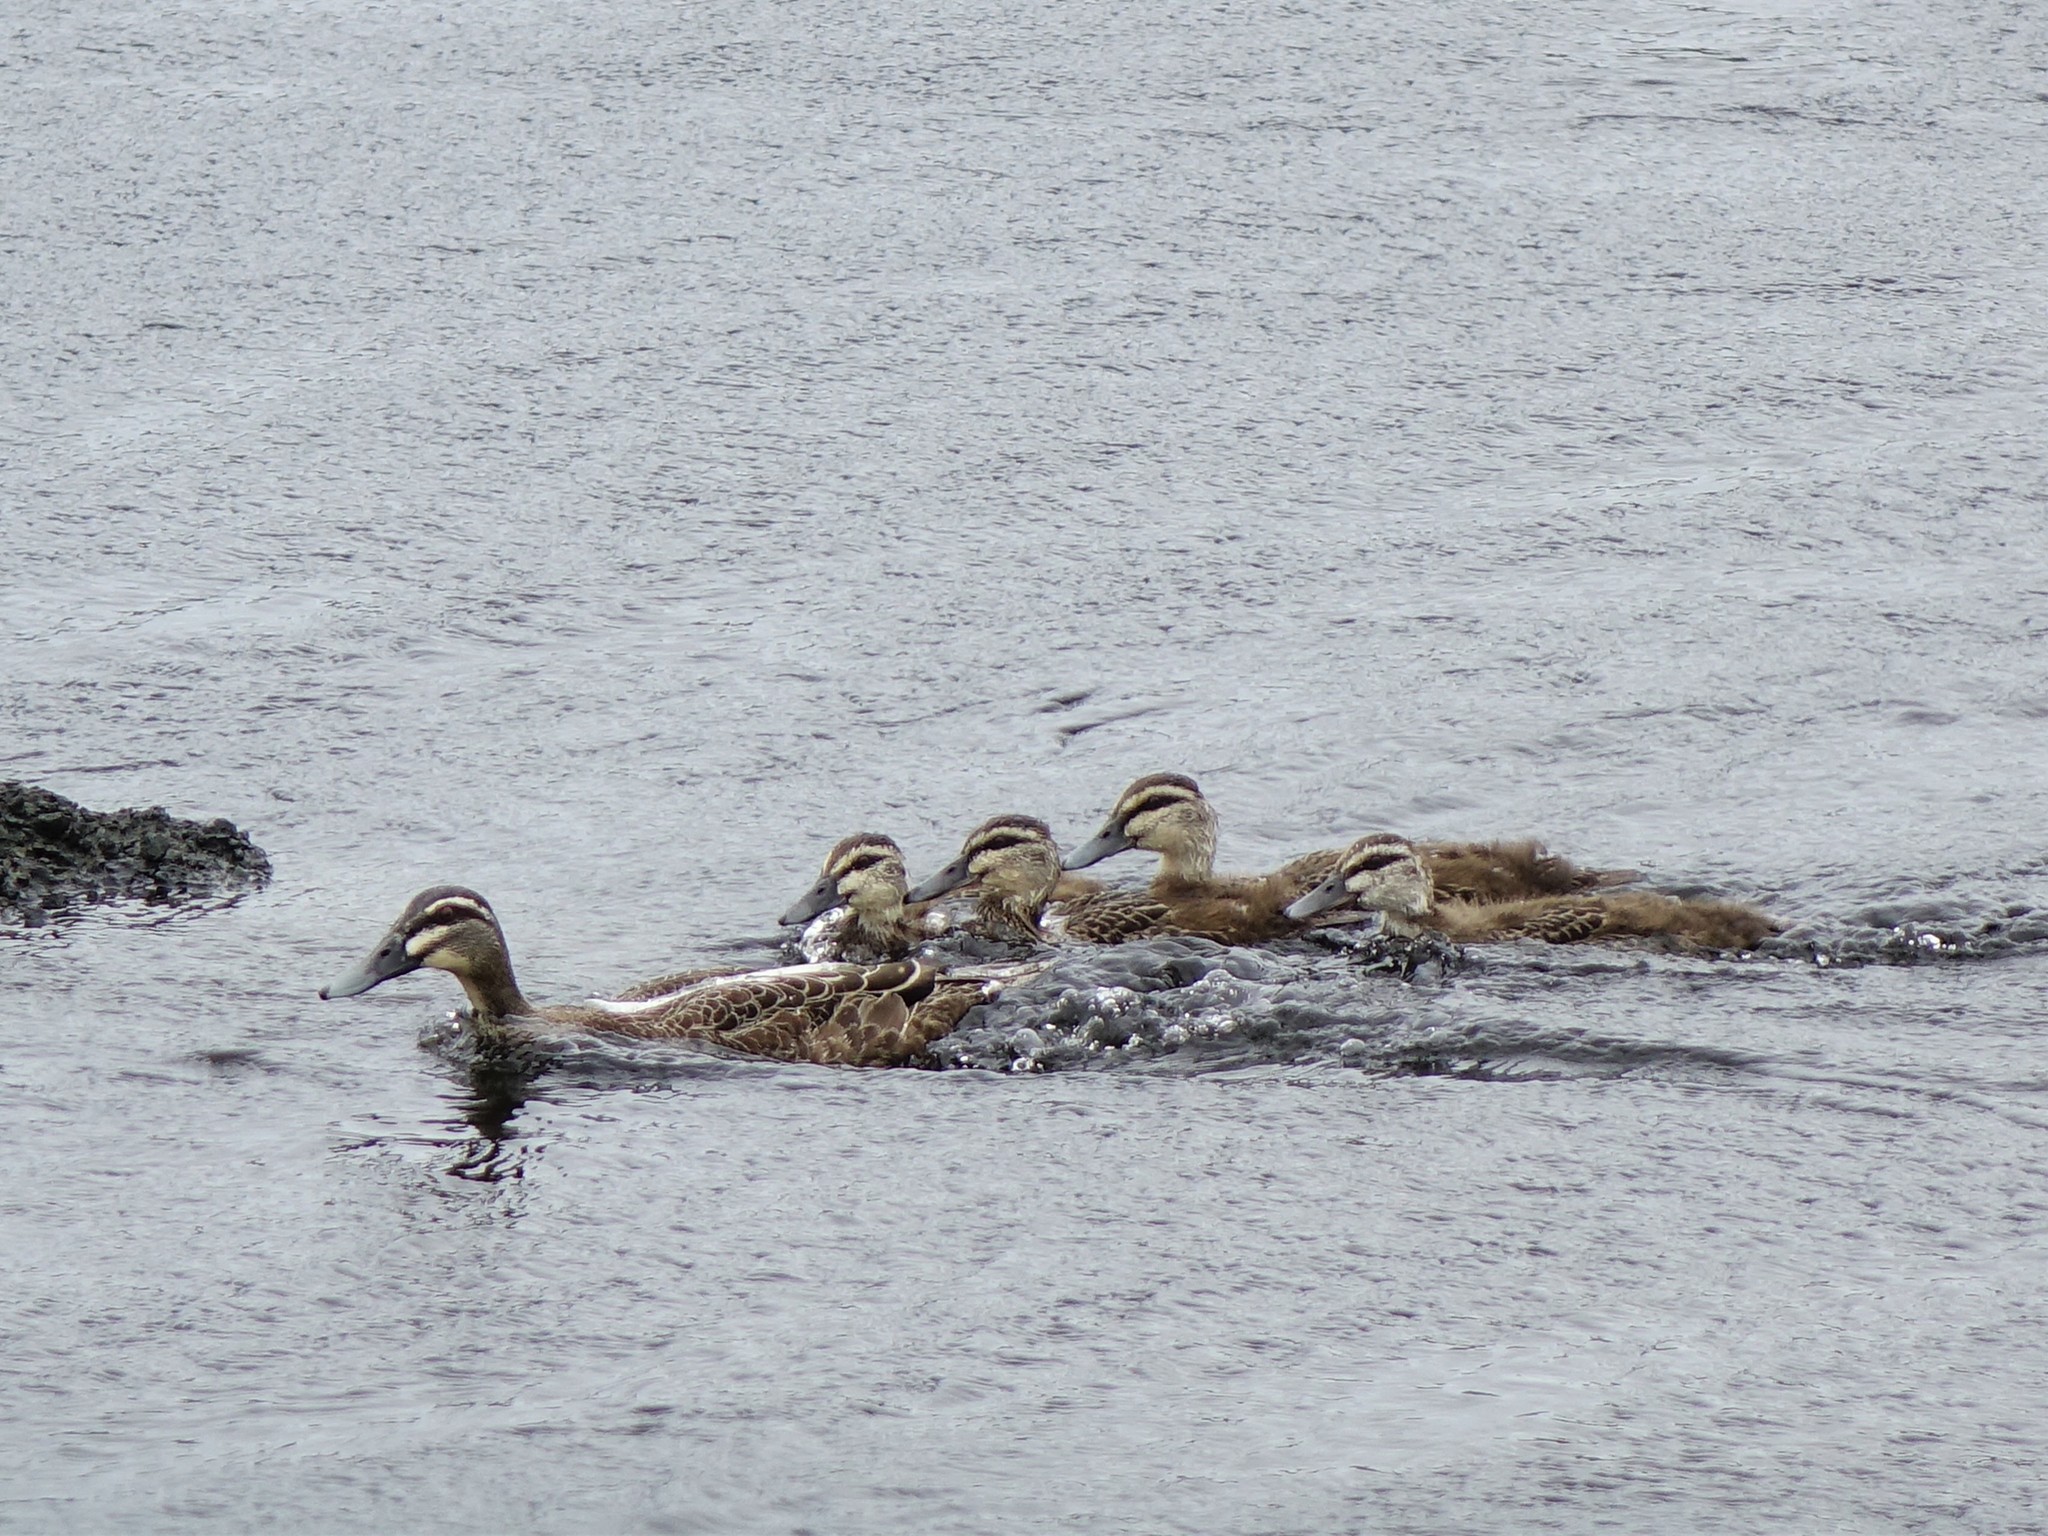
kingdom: Animalia
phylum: Chordata
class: Aves
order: Anseriformes
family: Anatidae
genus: Anas
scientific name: Anas superciliosa
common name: Pacific black duck
